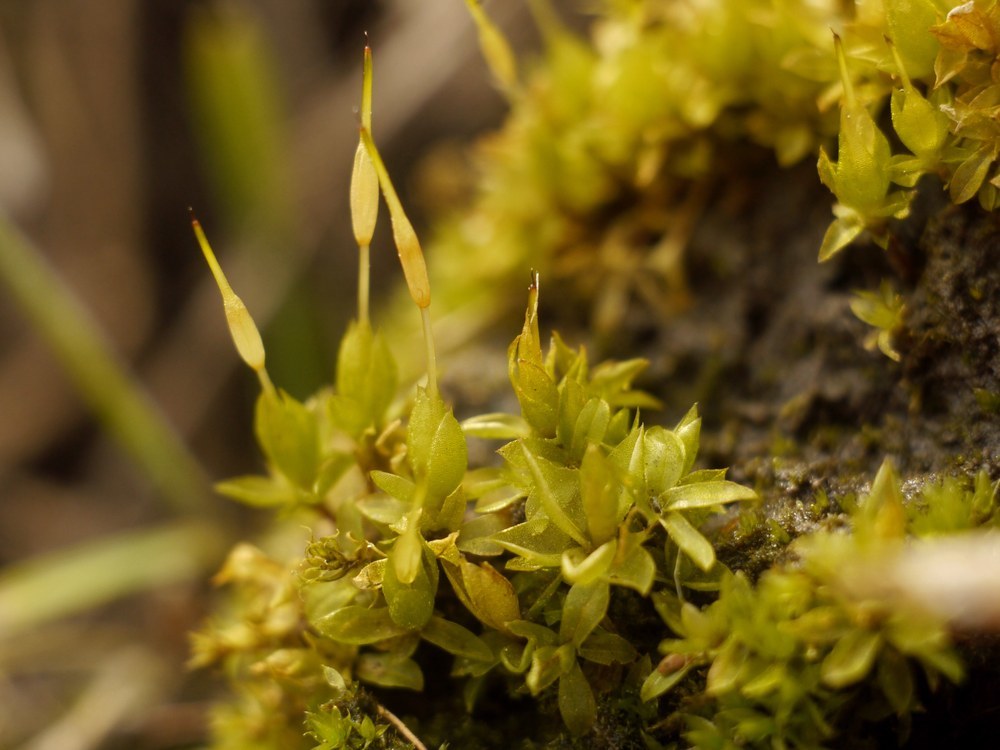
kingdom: Plantae
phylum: Bryophyta
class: Bryopsida
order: Funariales
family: Funariaceae
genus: Funaria
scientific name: Funaria hygrometrica
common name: Common cord moss
